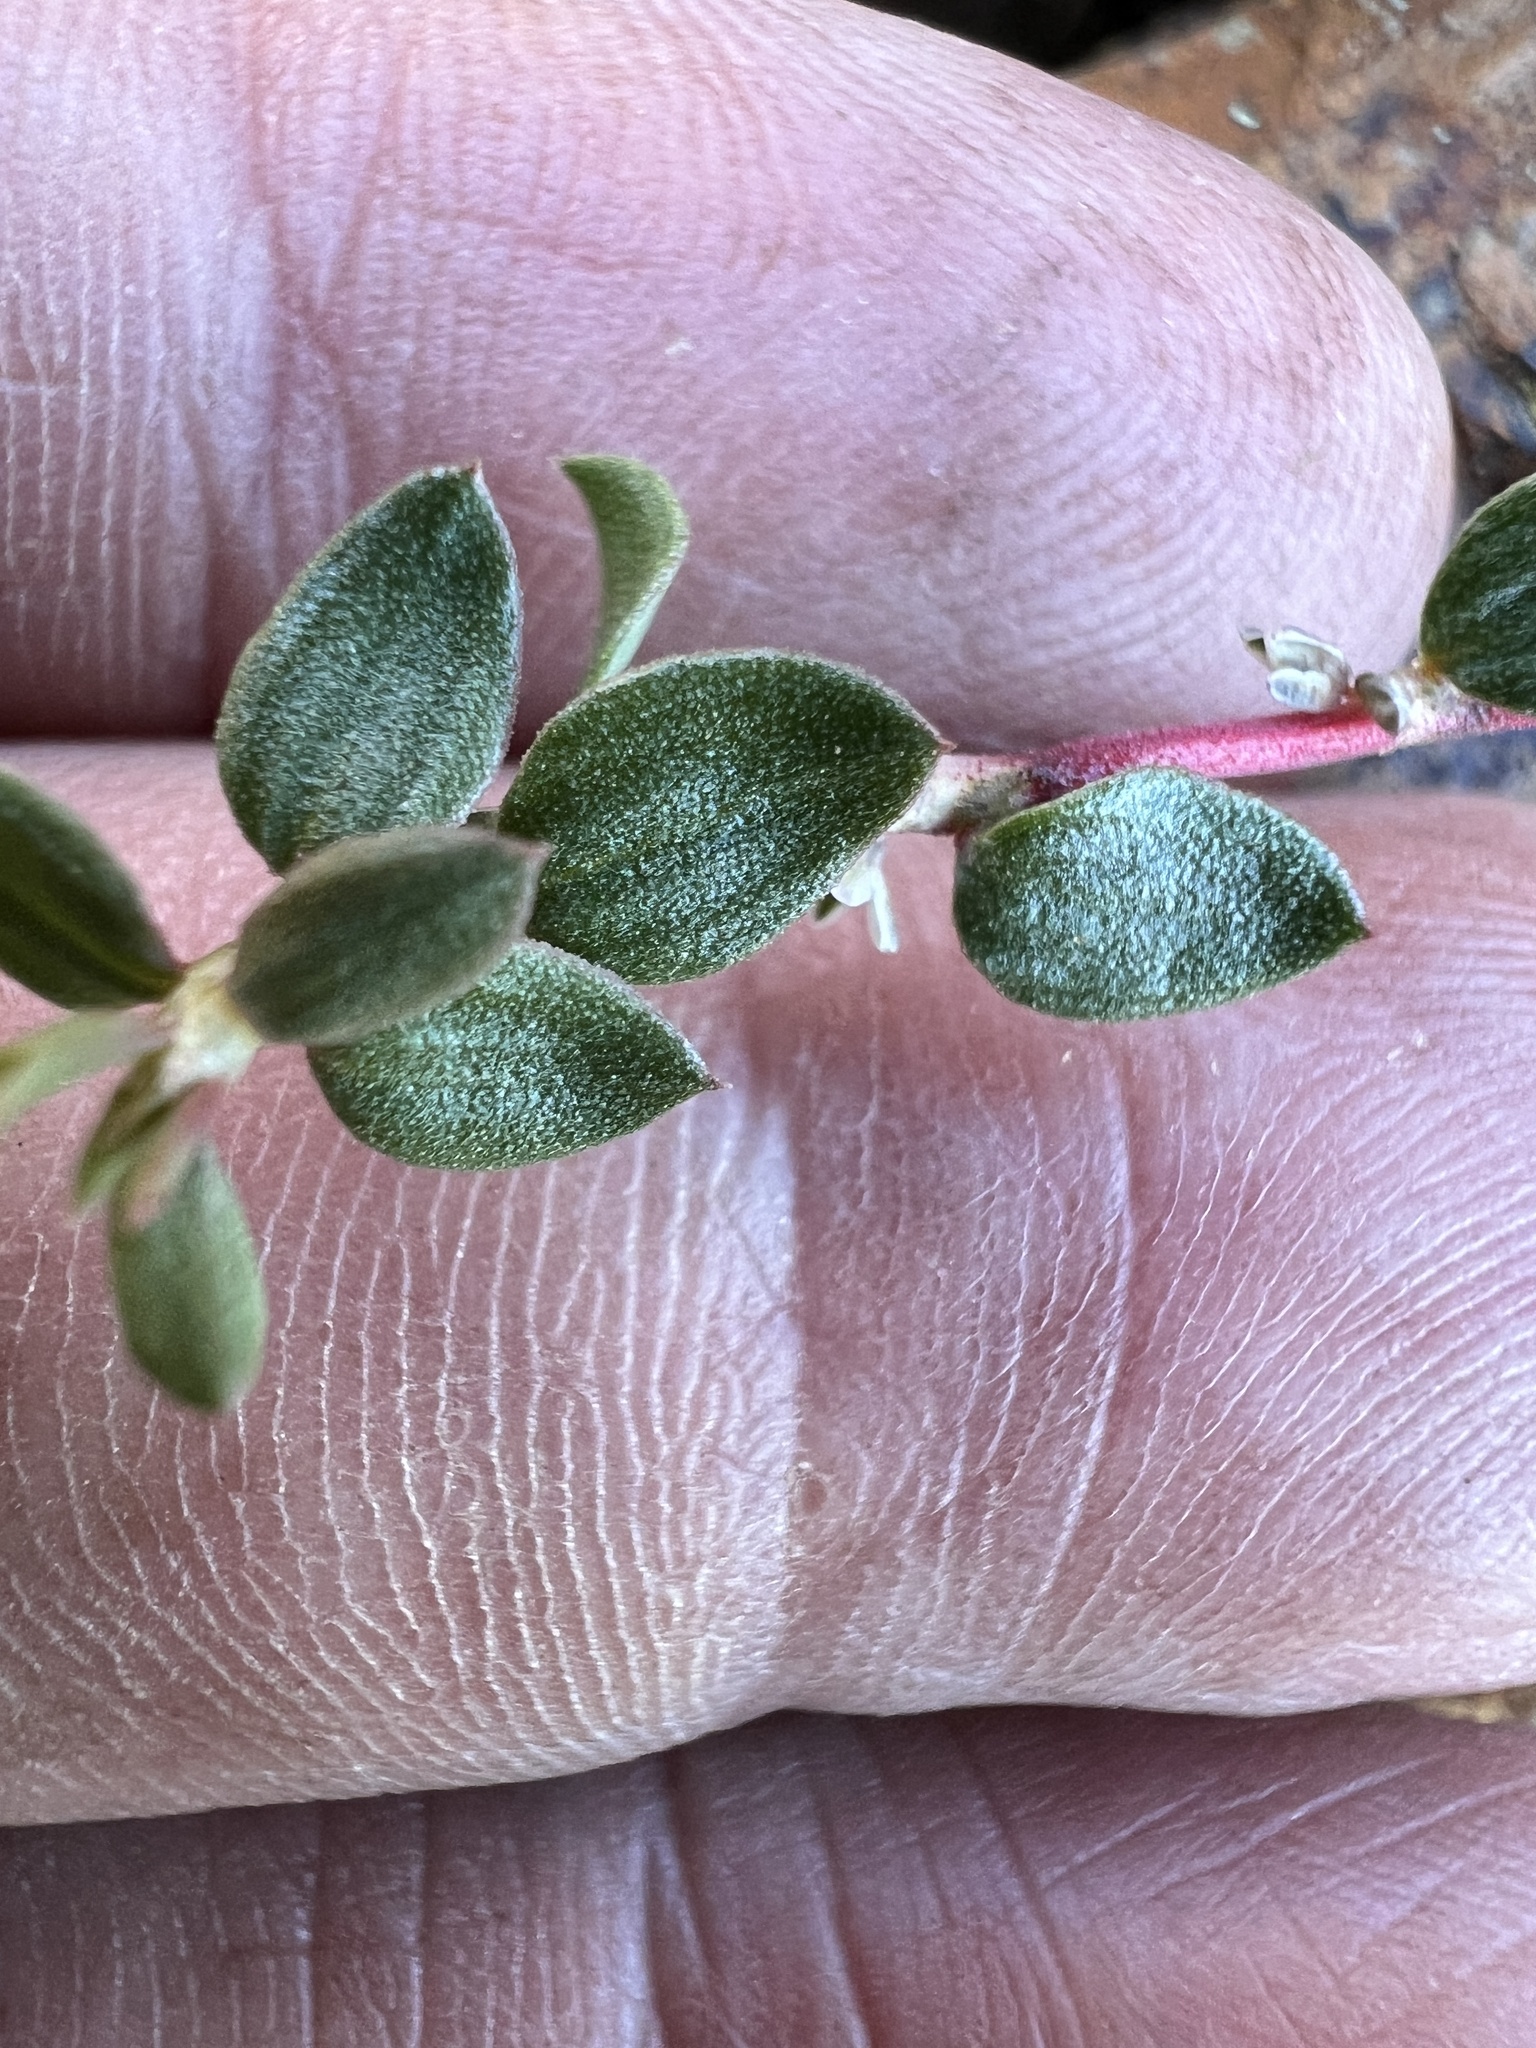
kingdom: Plantae
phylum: Tracheophyta
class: Magnoliopsida
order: Caryophyllales
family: Polygonaceae
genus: Polygonum
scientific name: Polygonum minimum
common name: Broad-leaved knotweed
